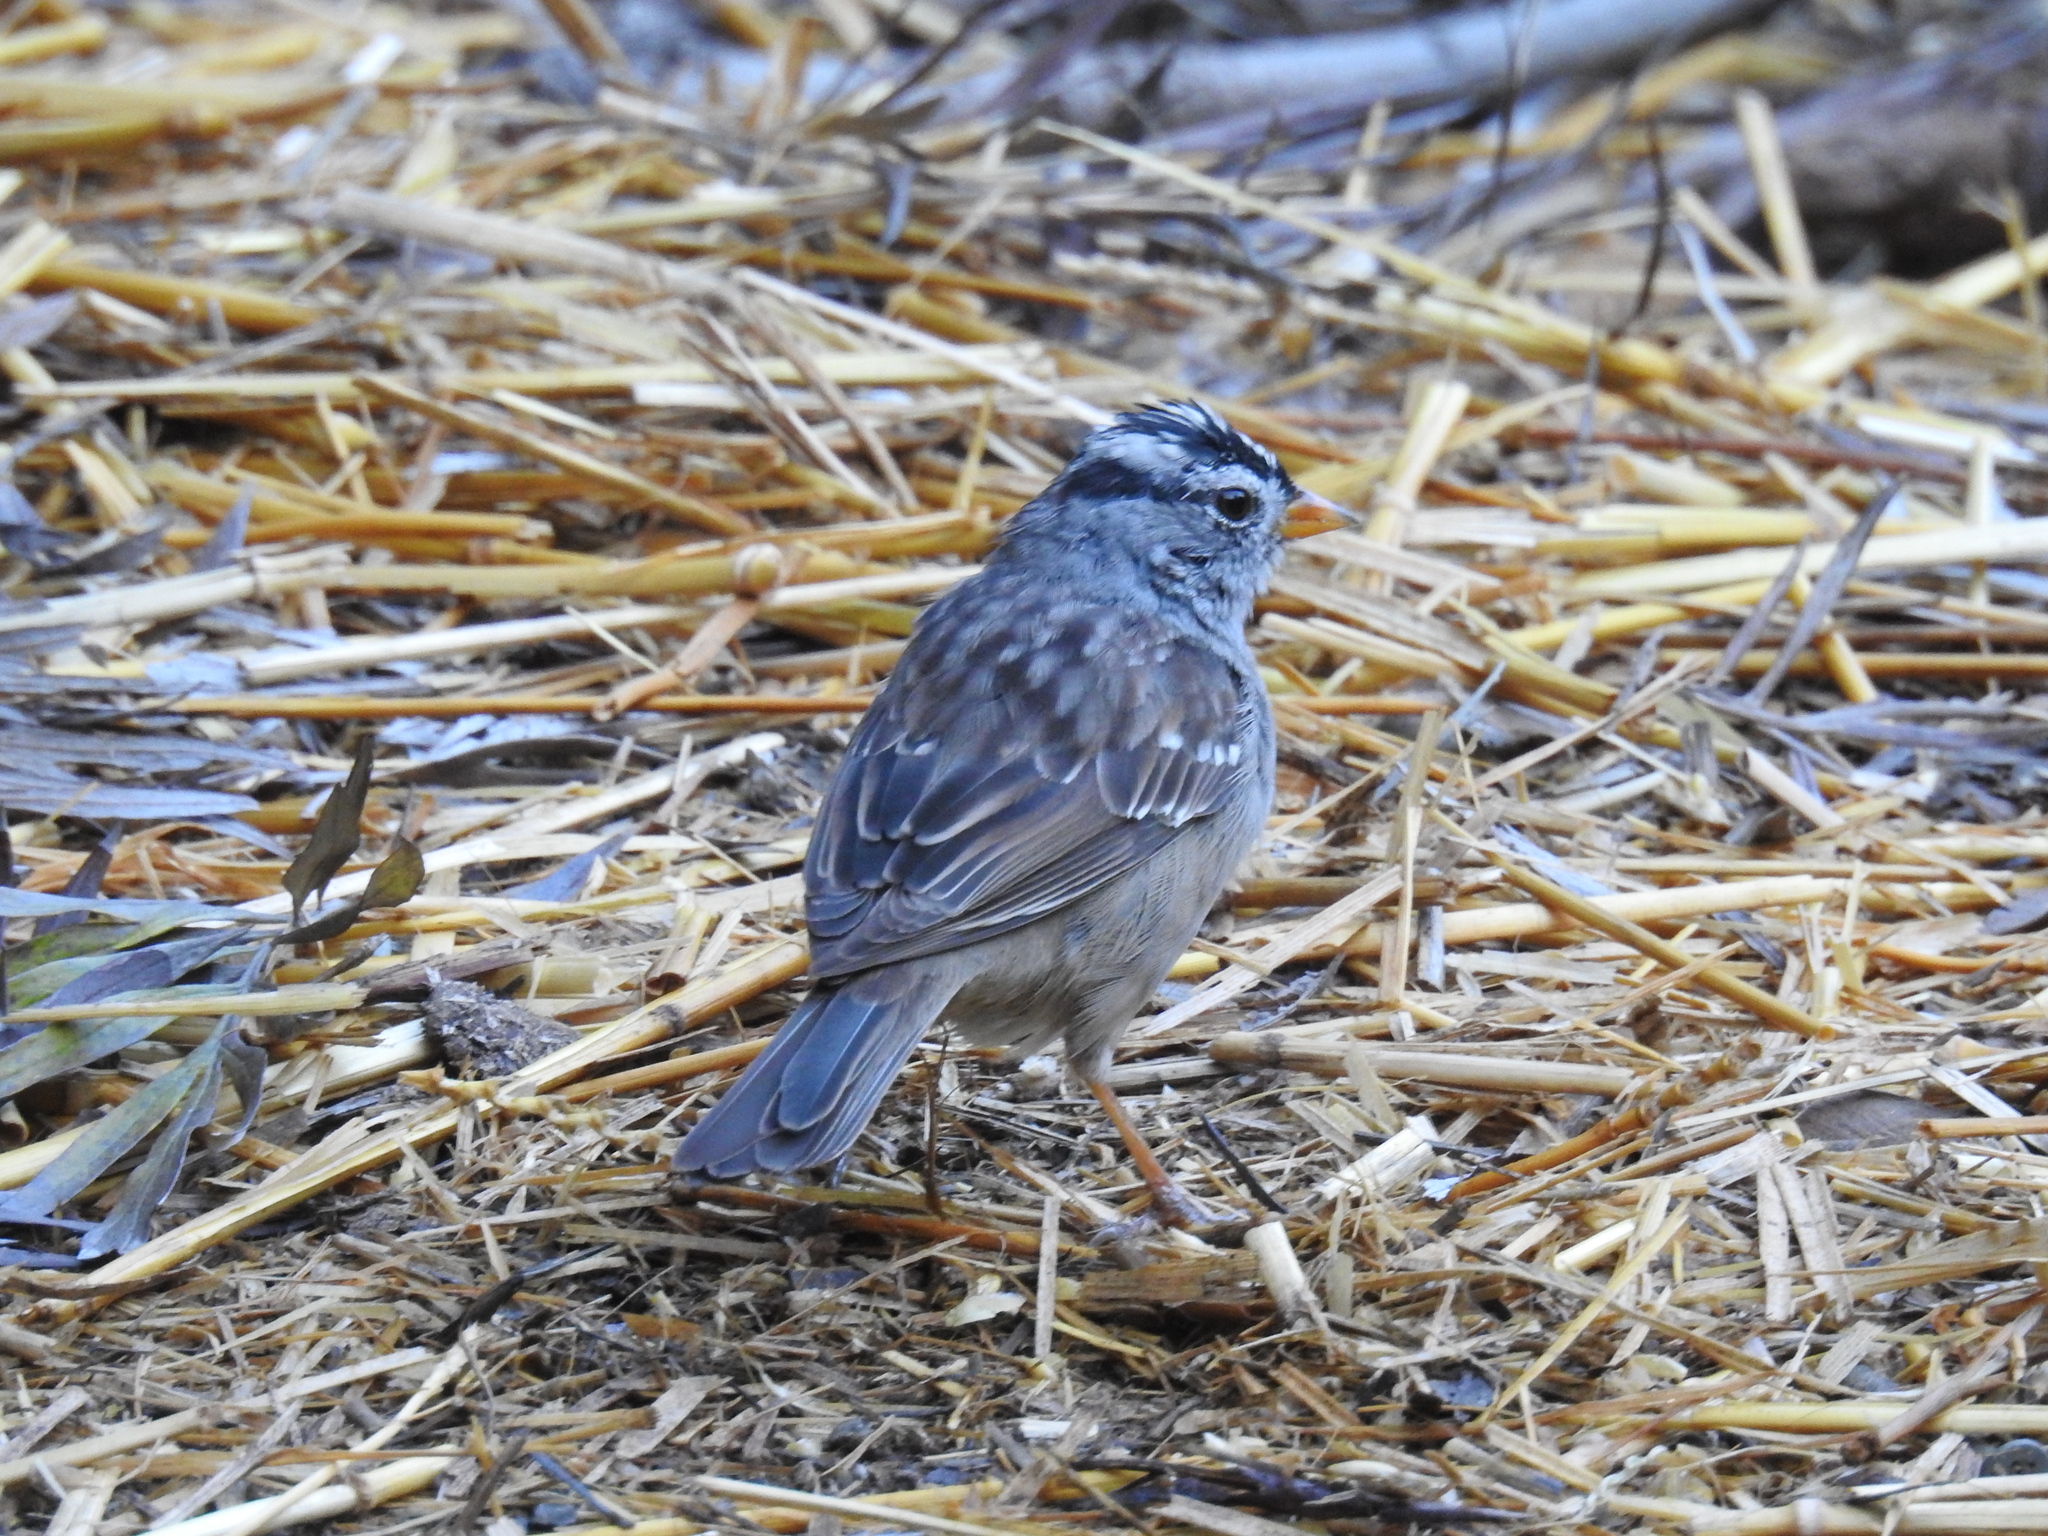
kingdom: Animalia
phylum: Chordata
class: Aves
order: Passeriformes
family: Passerellidae
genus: Zonotrichia
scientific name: Zonotrichia leucophrys
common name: White-crowned sparrow
